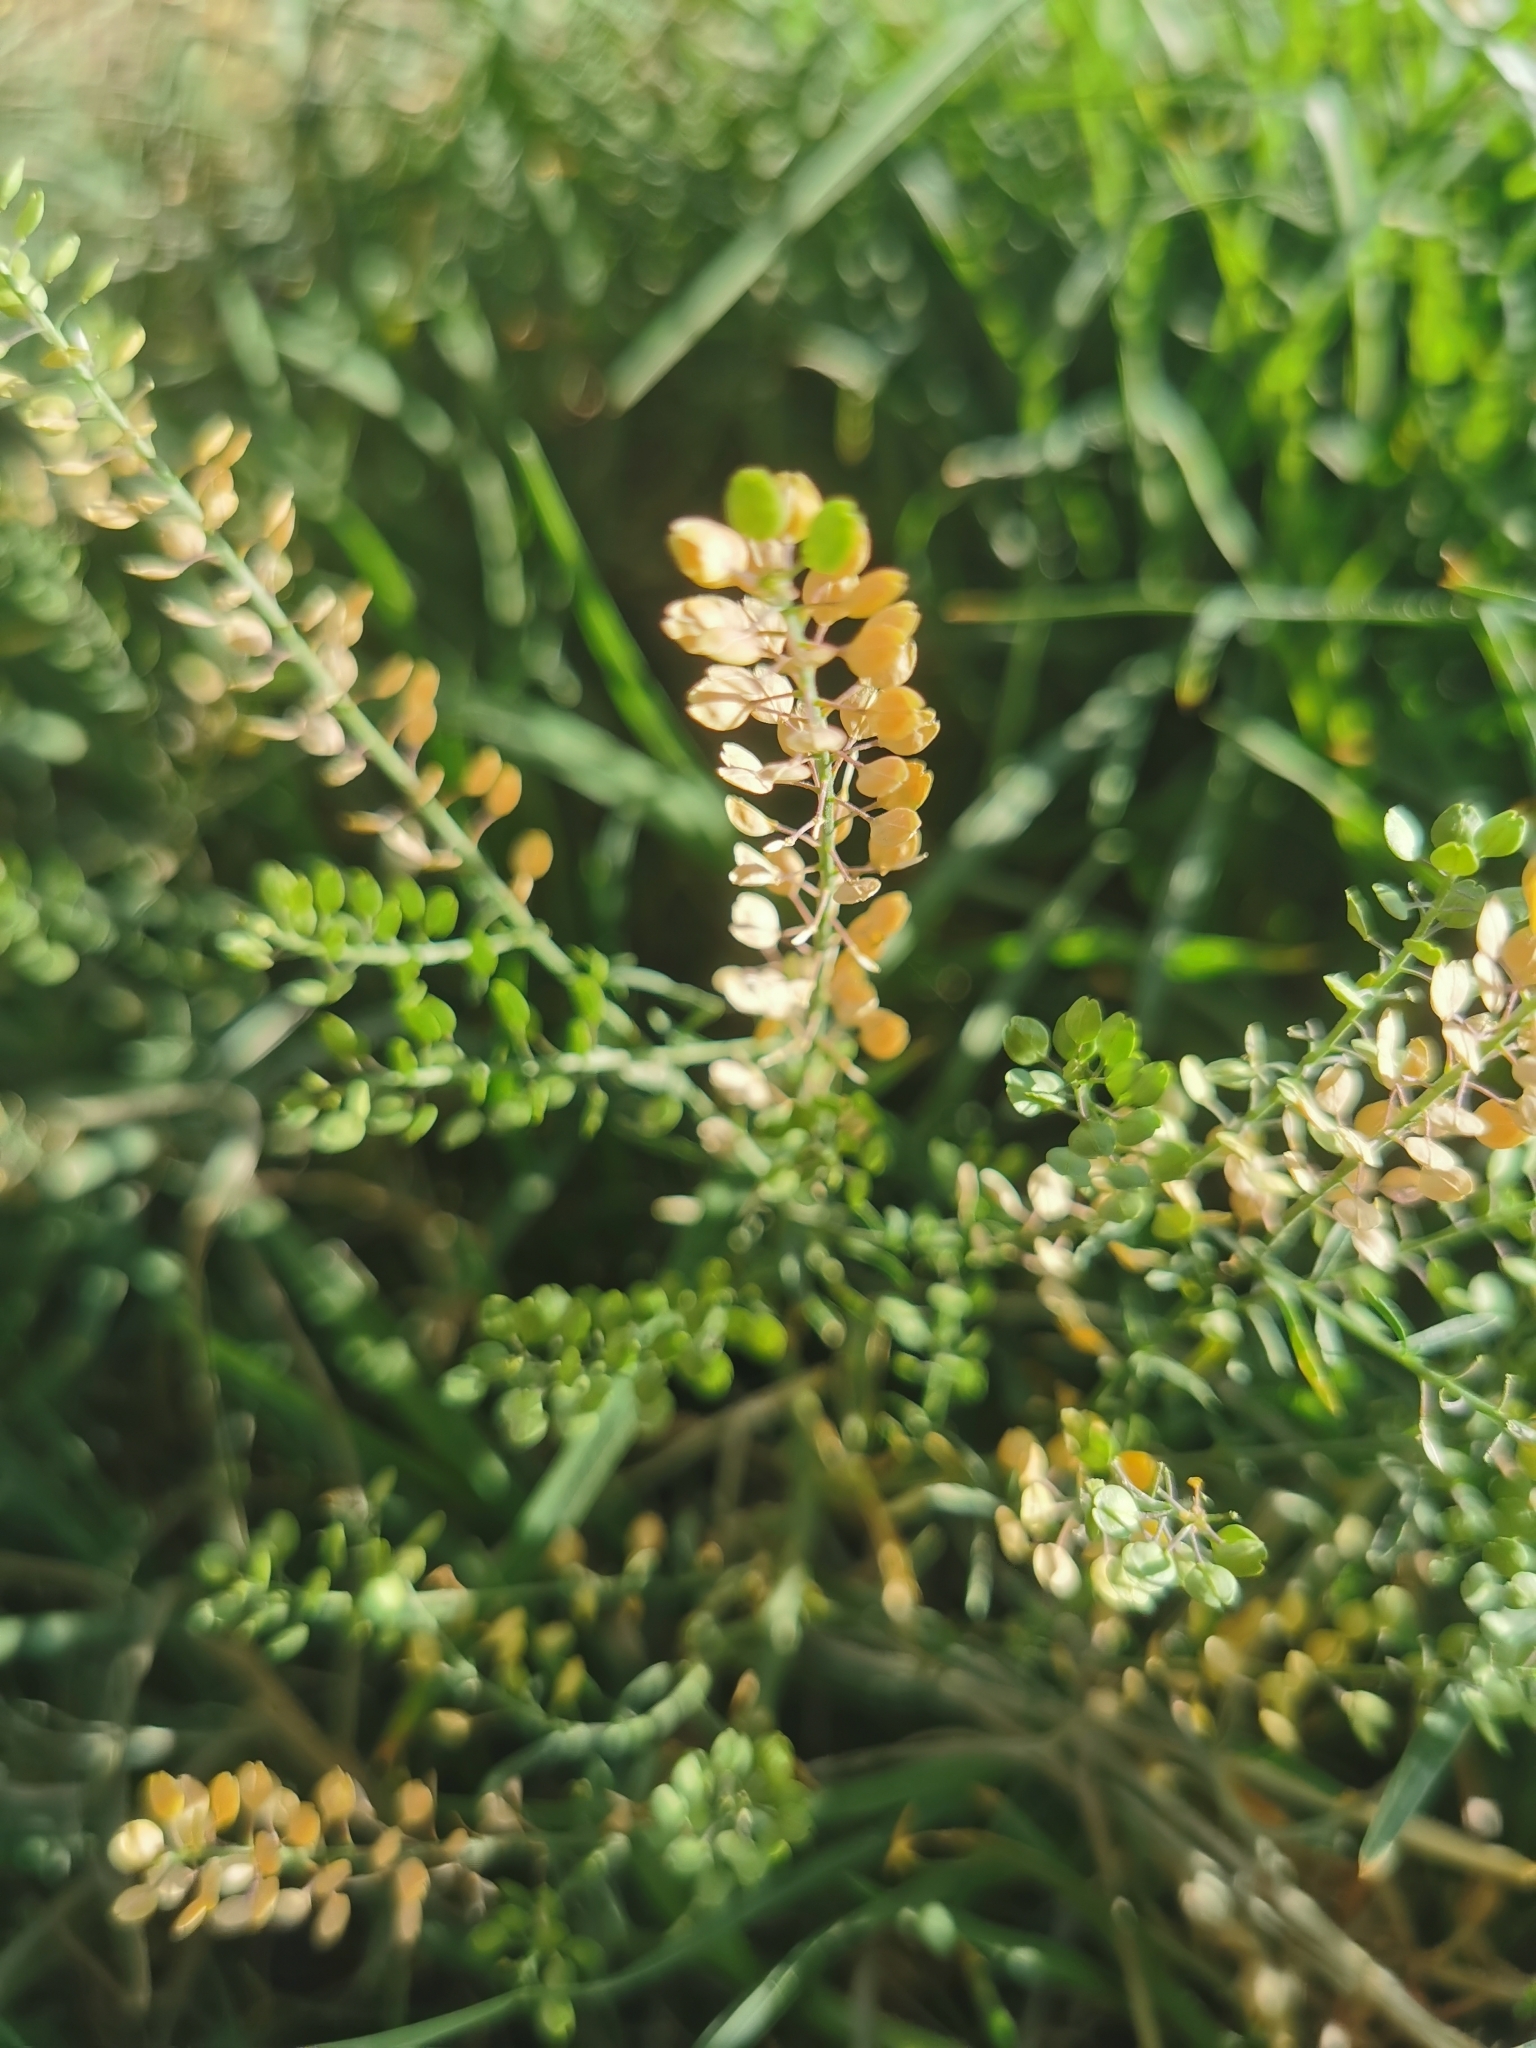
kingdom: Plantae
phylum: Tracheophyta
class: Magnoliopsida
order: Brassicales
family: Brassicaceae
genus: Lepidium
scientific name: Lepidium virginicum
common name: Least pepperwort
